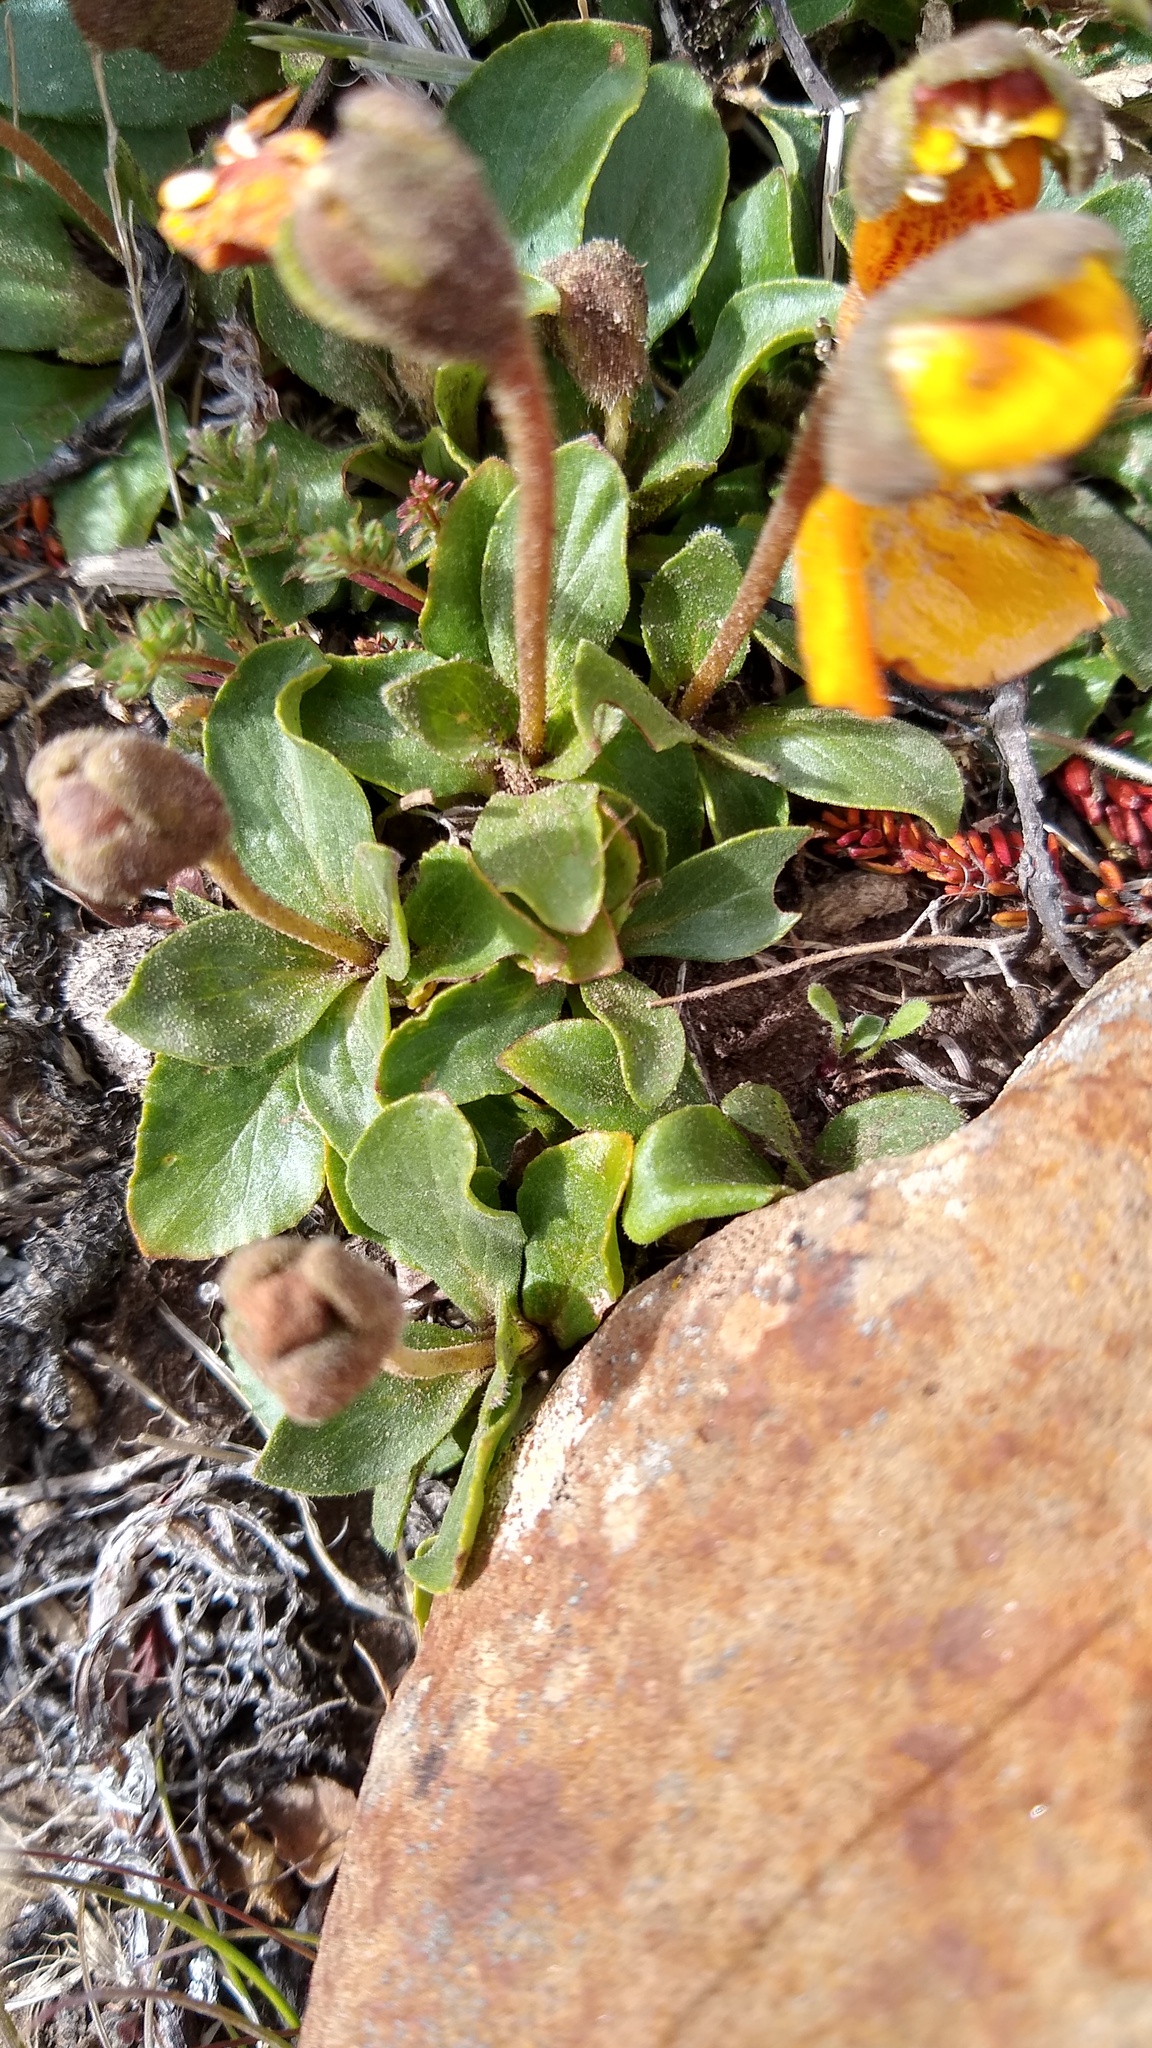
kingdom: Plantae
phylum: Tracheophyta
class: Magnoliopsida
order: Lamiales
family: Calceolariaceae
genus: Calceolaria
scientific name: Calceolaria uniflora
